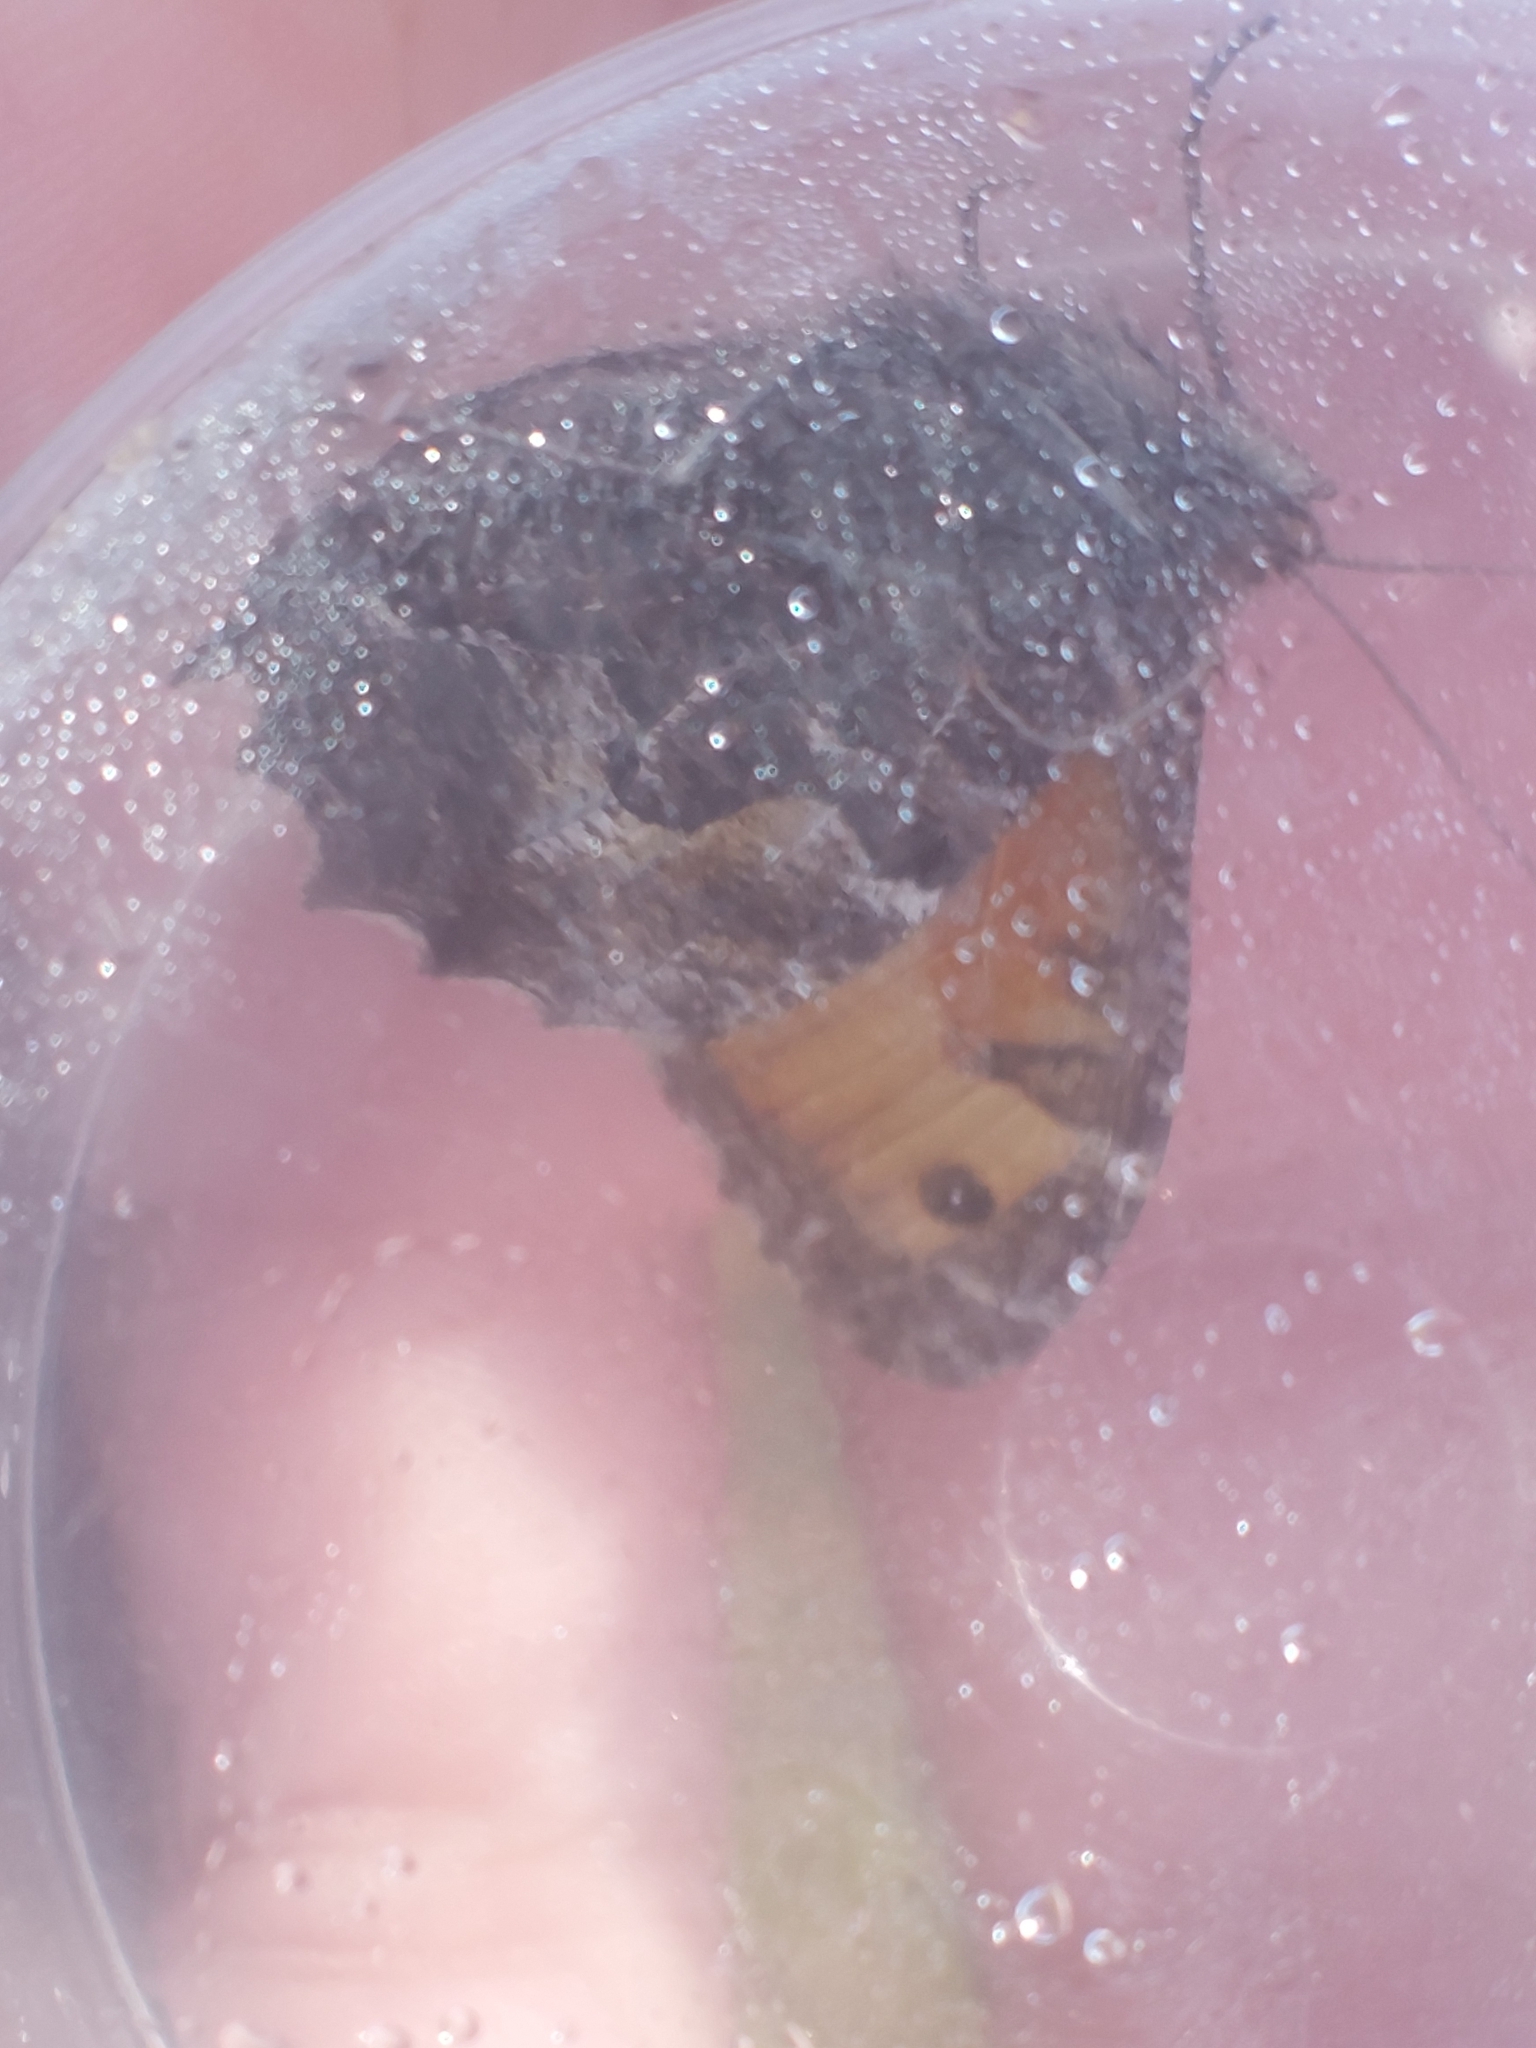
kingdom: Animalia
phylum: Arthropoda
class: Insecta
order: Lepidoptera
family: Nymphalidae
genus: Hipparchia
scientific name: Hipparchia semele
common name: Grayling
